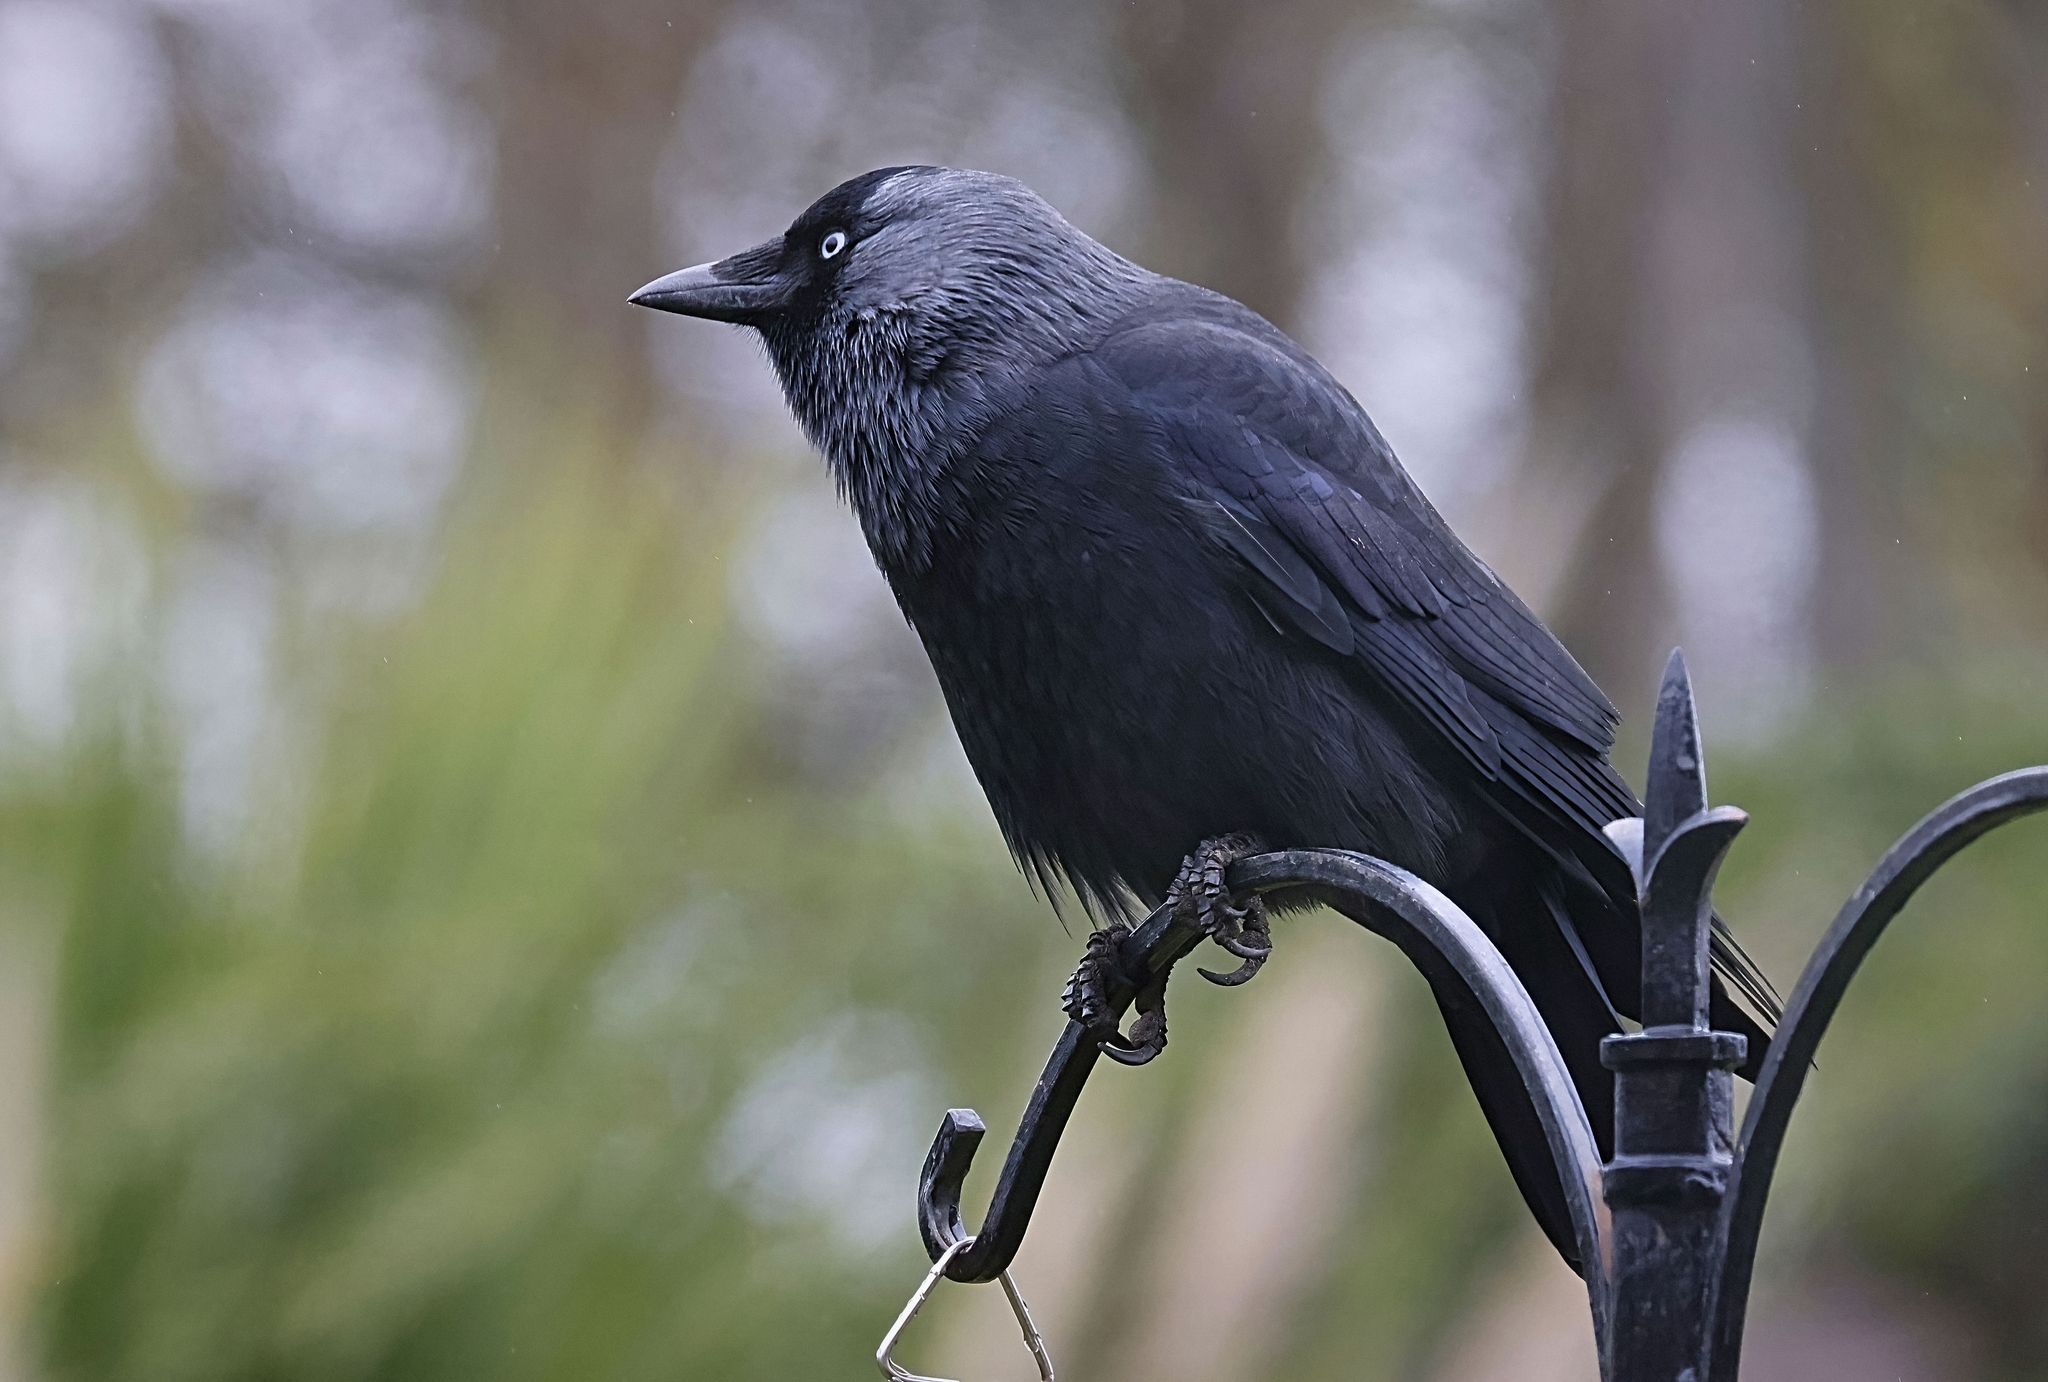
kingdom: Animalia
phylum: Chordata
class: Aves
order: Passeriformes
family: Corvidae
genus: Coloeus
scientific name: Coloeus monedula
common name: Western jackdaw
